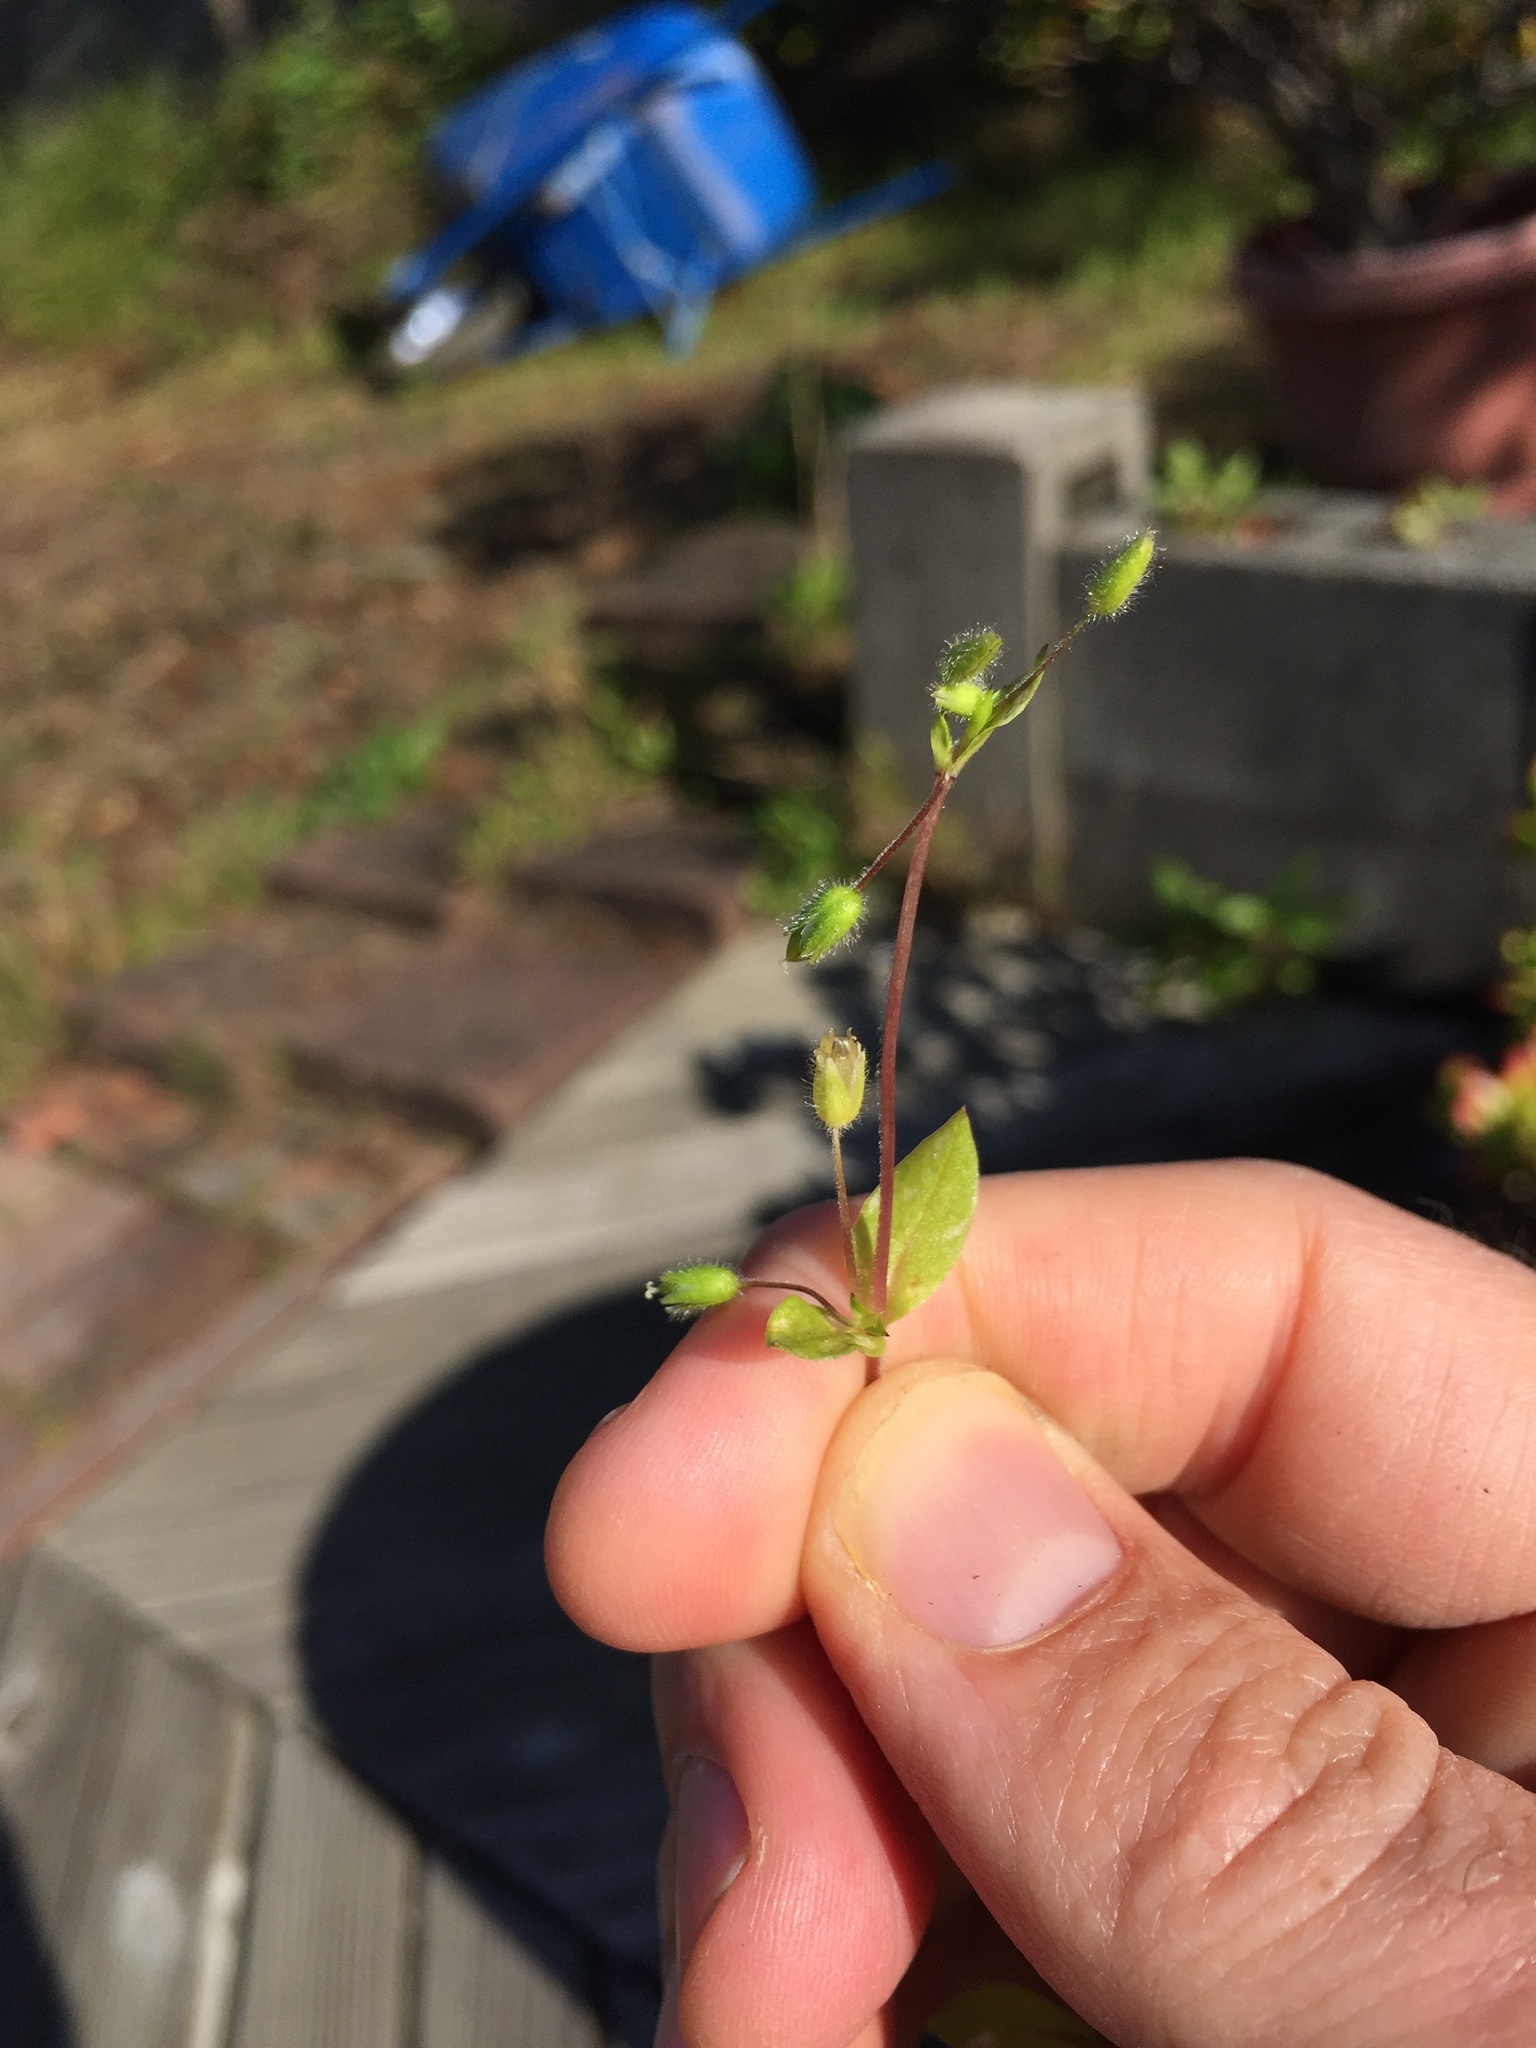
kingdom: Plantae
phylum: Tracheophyta
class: Magnoliopsida
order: Caryophyllales
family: Caryophyllaceae
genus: Stellaria
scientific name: Stellaria media
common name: Common chickweed
